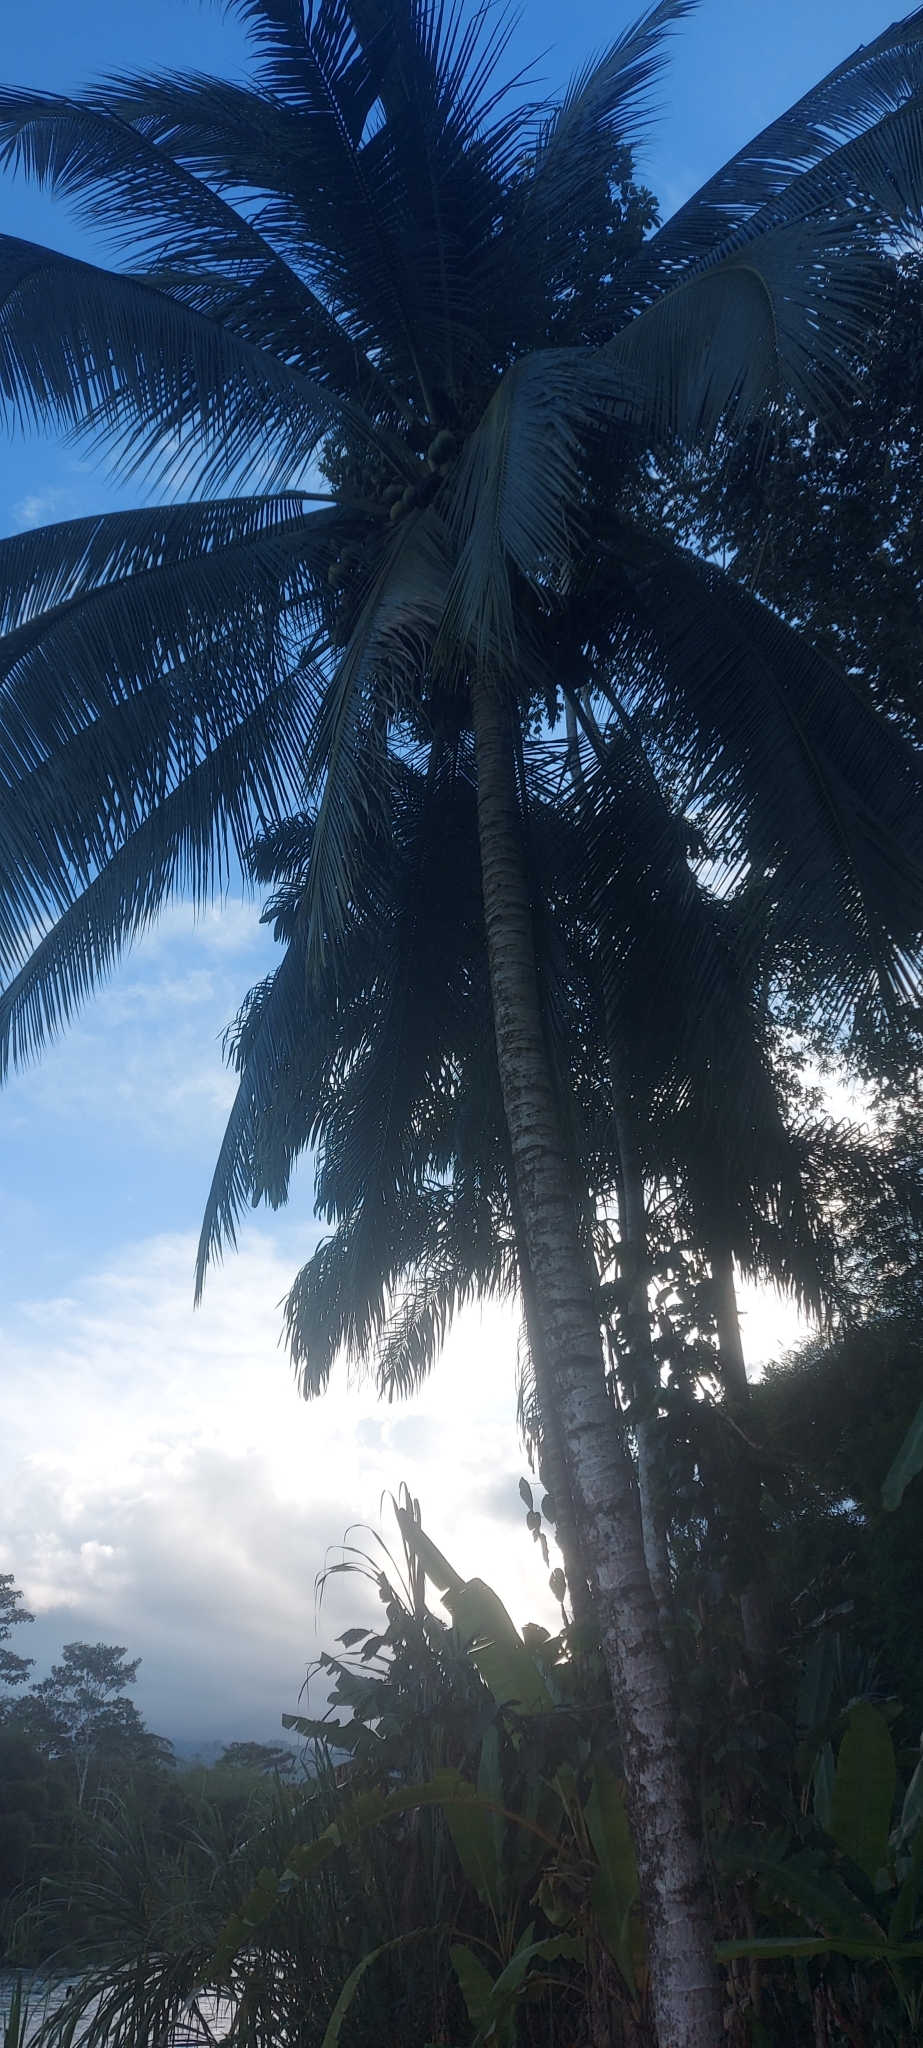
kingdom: Plantae
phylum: Tracheophyta
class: Liliopsida
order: Arecales
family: Arecaceae
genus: Cocos
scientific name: Cocos nucifera
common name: Coconut palm
